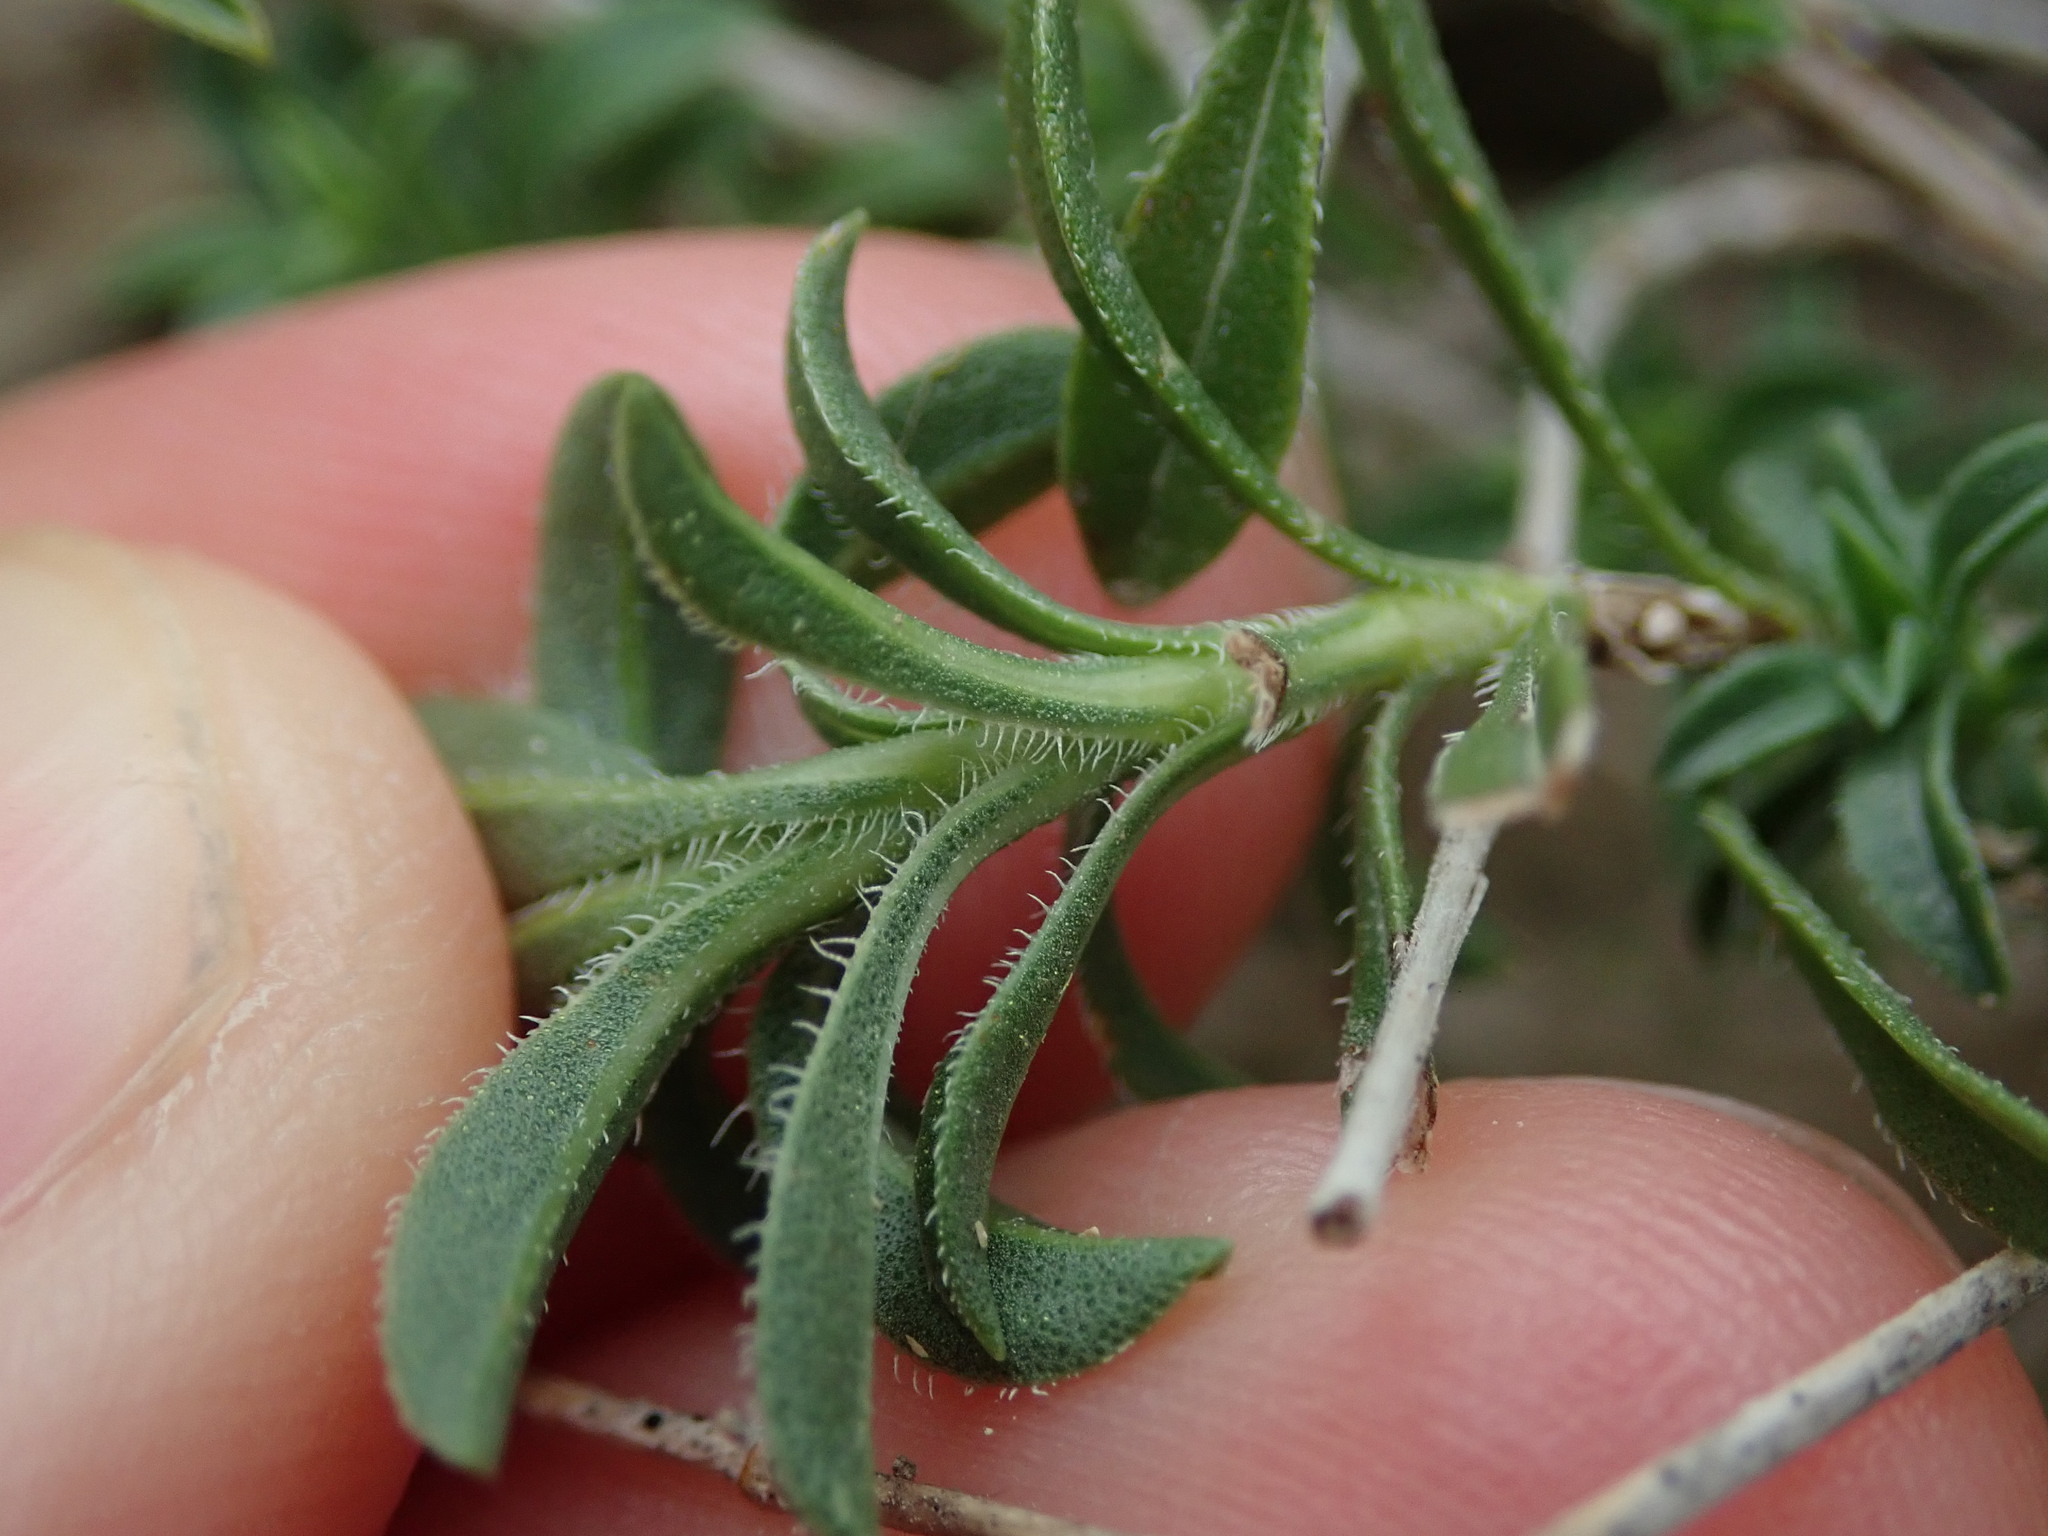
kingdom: Plantae
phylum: Tracheophyta
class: Magnoliopsida
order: Lamiales
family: Lamiaceae
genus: Satureja
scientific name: Satureja montana
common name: Winter savory
